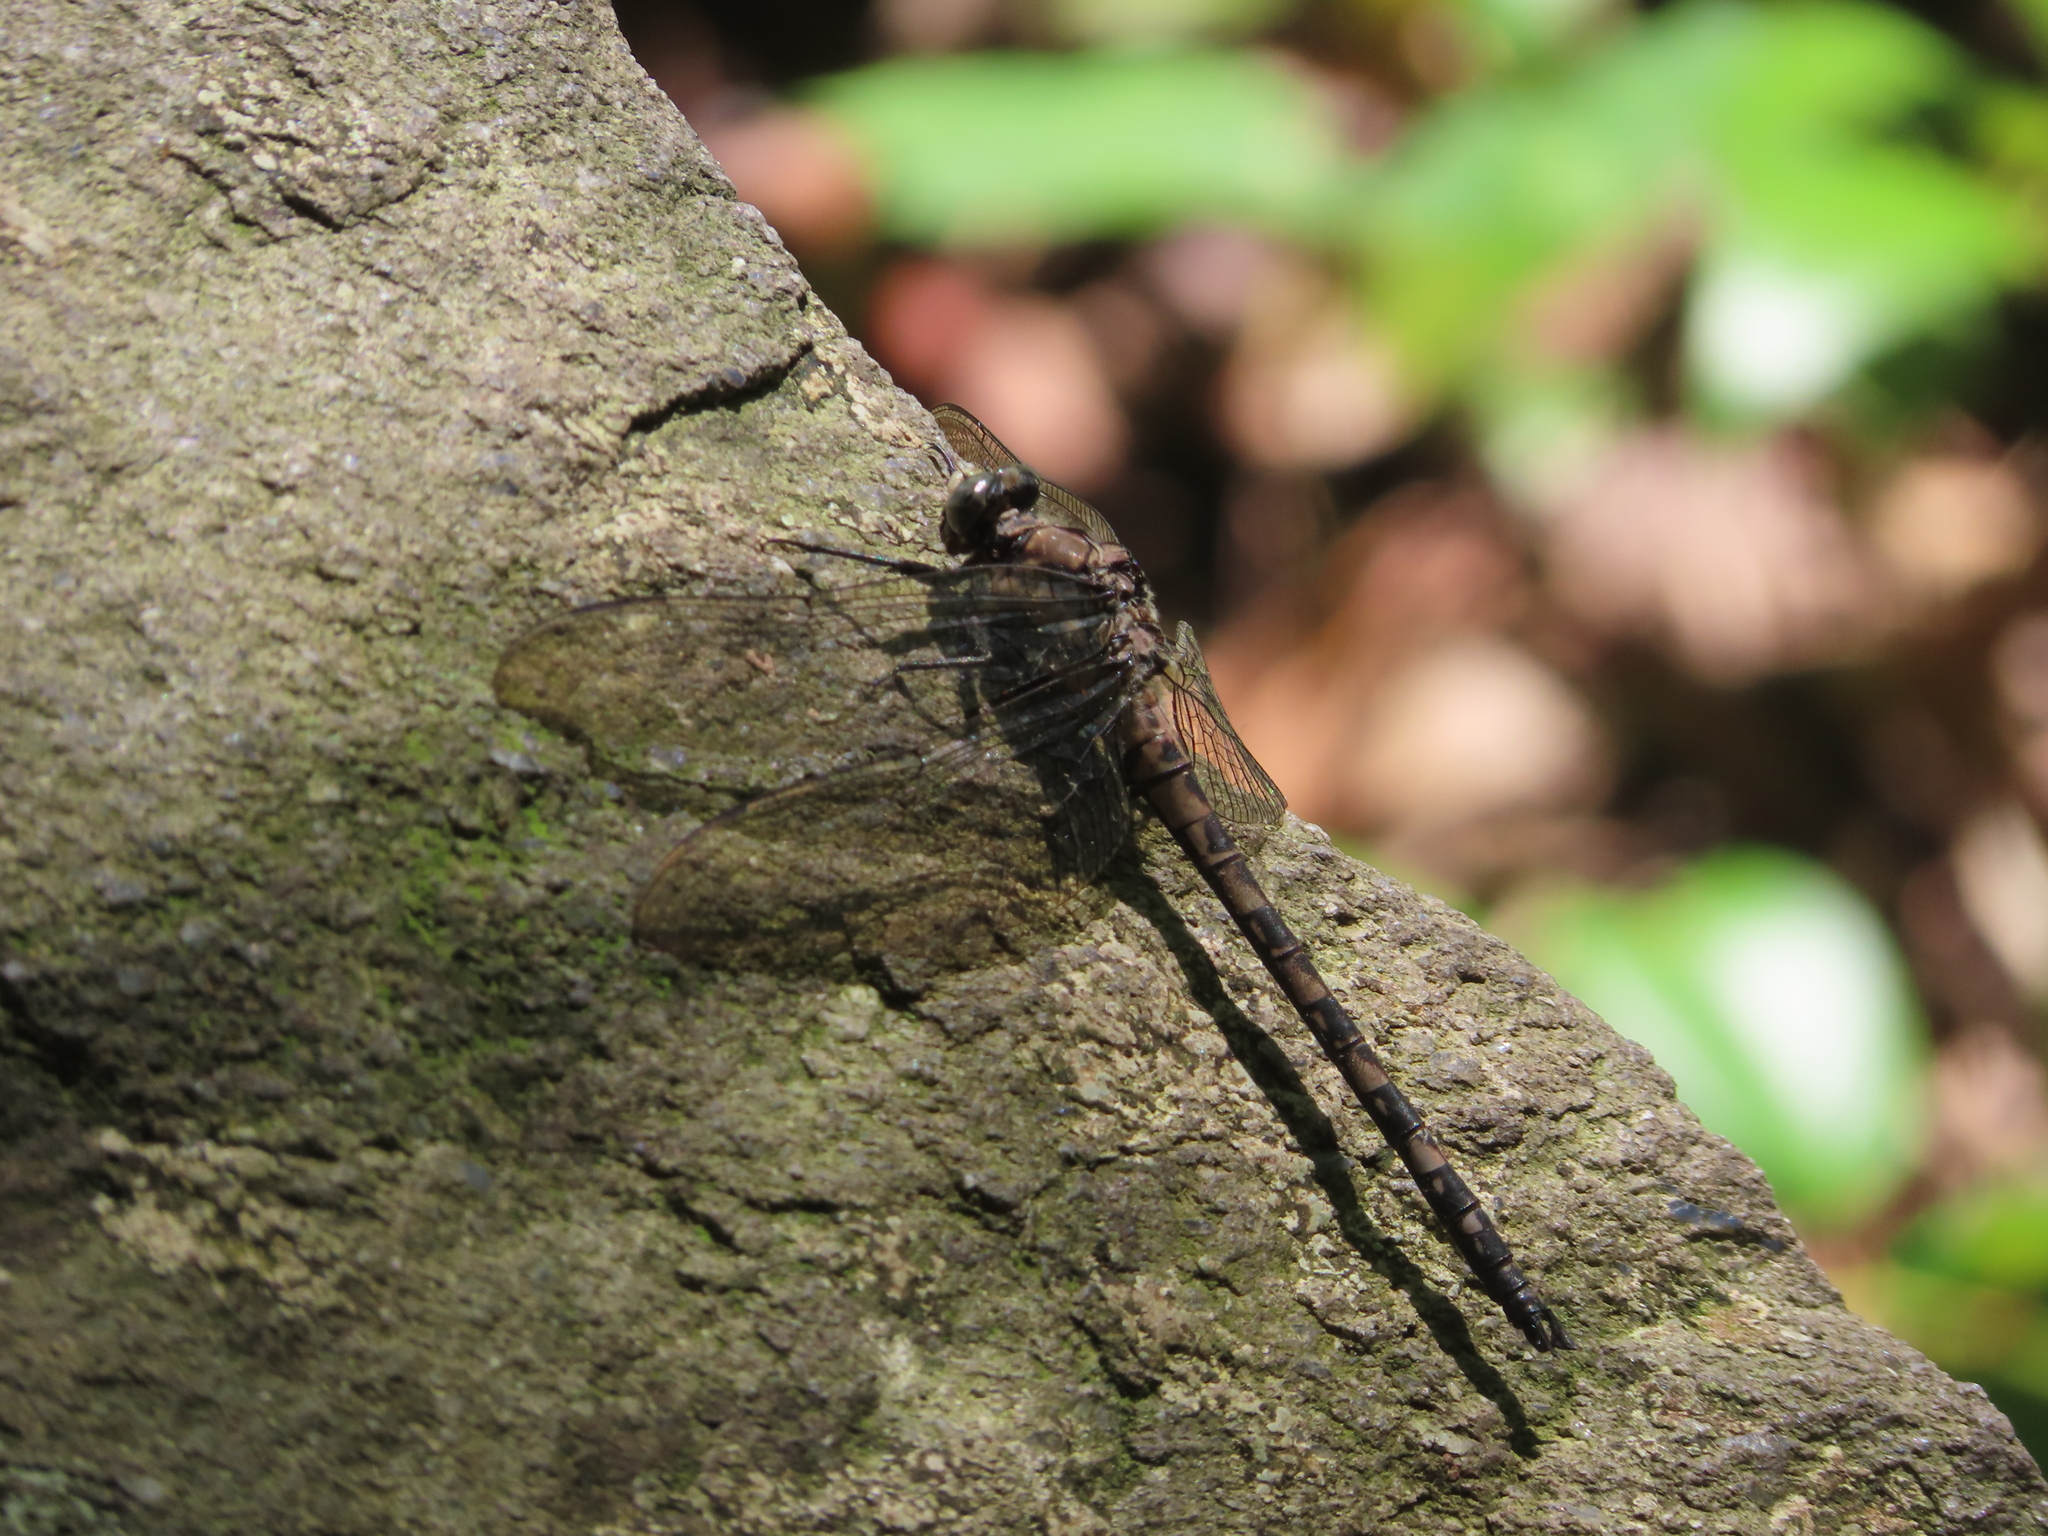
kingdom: Animalia
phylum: Arthropoda
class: Insecta
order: Odonata
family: Petaluridae
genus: Tachopteryx
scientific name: Tachopteryx thoreyi
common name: Gray petaltail
